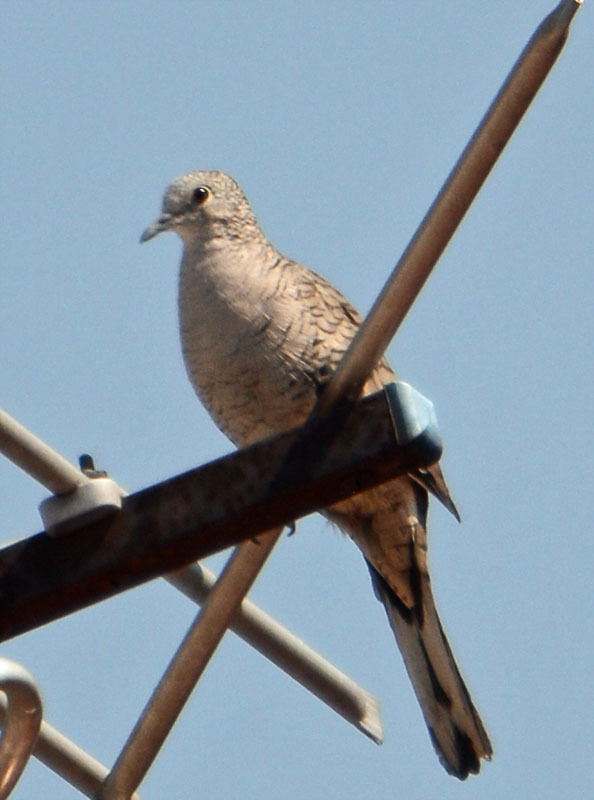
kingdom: Animalia
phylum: Chordata
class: Aves
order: Columbiformes
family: Columbidae
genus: Columbina
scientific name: Columbina inca
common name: Inca dove
